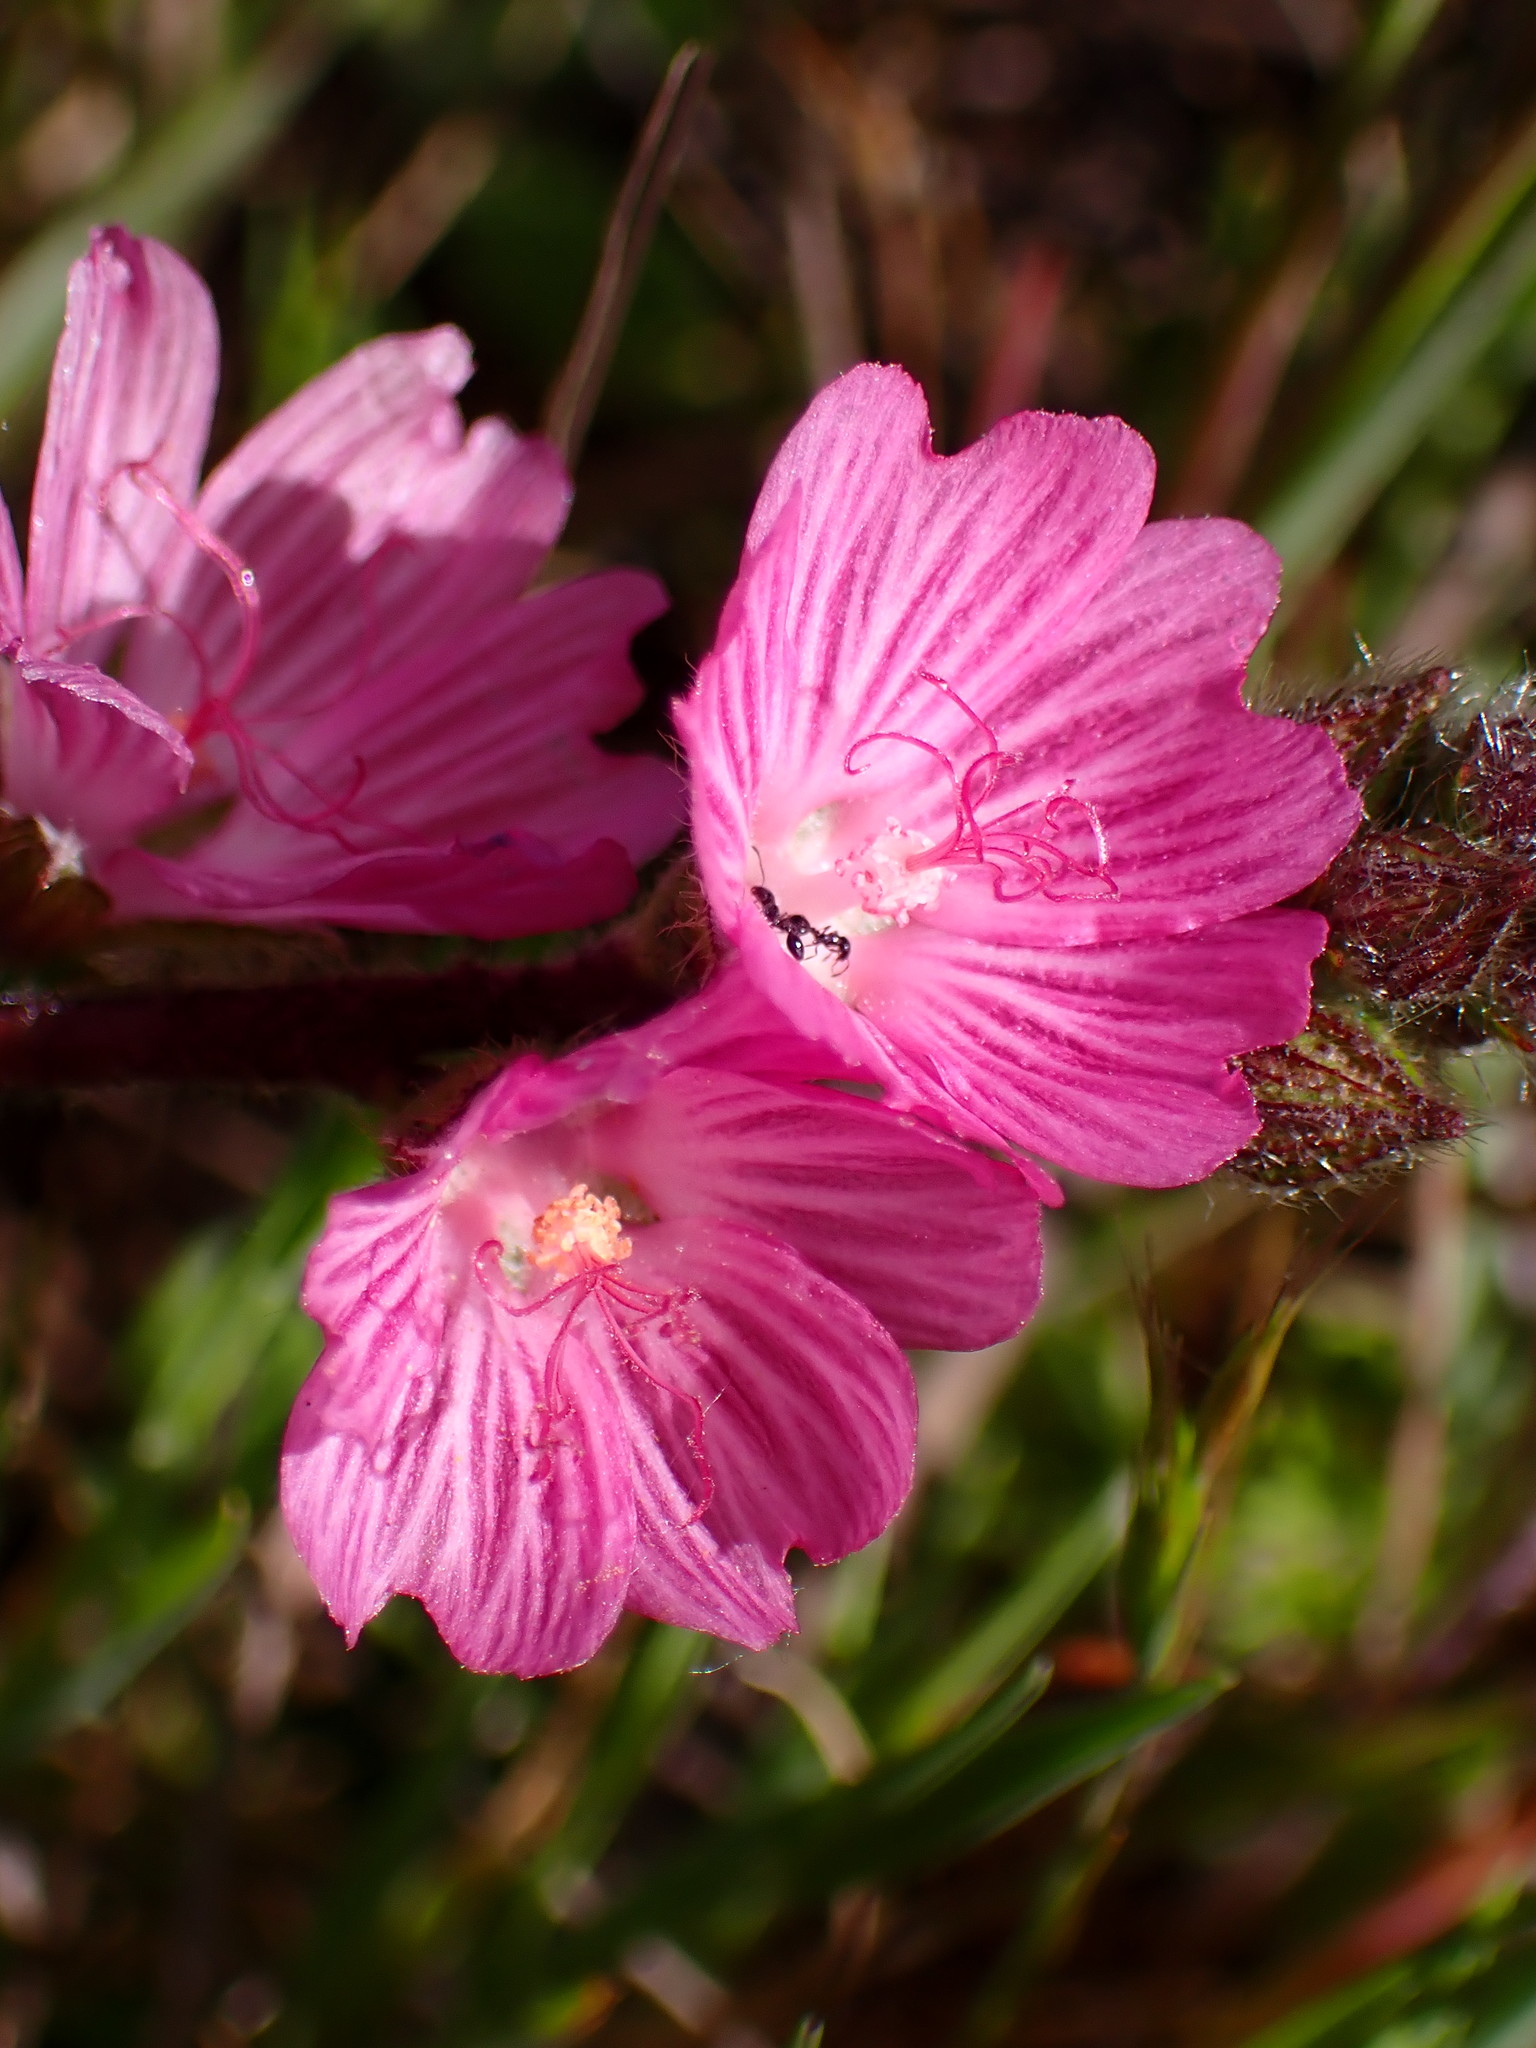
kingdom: Plantae
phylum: Tracheophyta
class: Magnoliopsida
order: Malvales
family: Malvaceae
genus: Sidalcea
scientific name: Sidalcea malviflora
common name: Greek mallow
